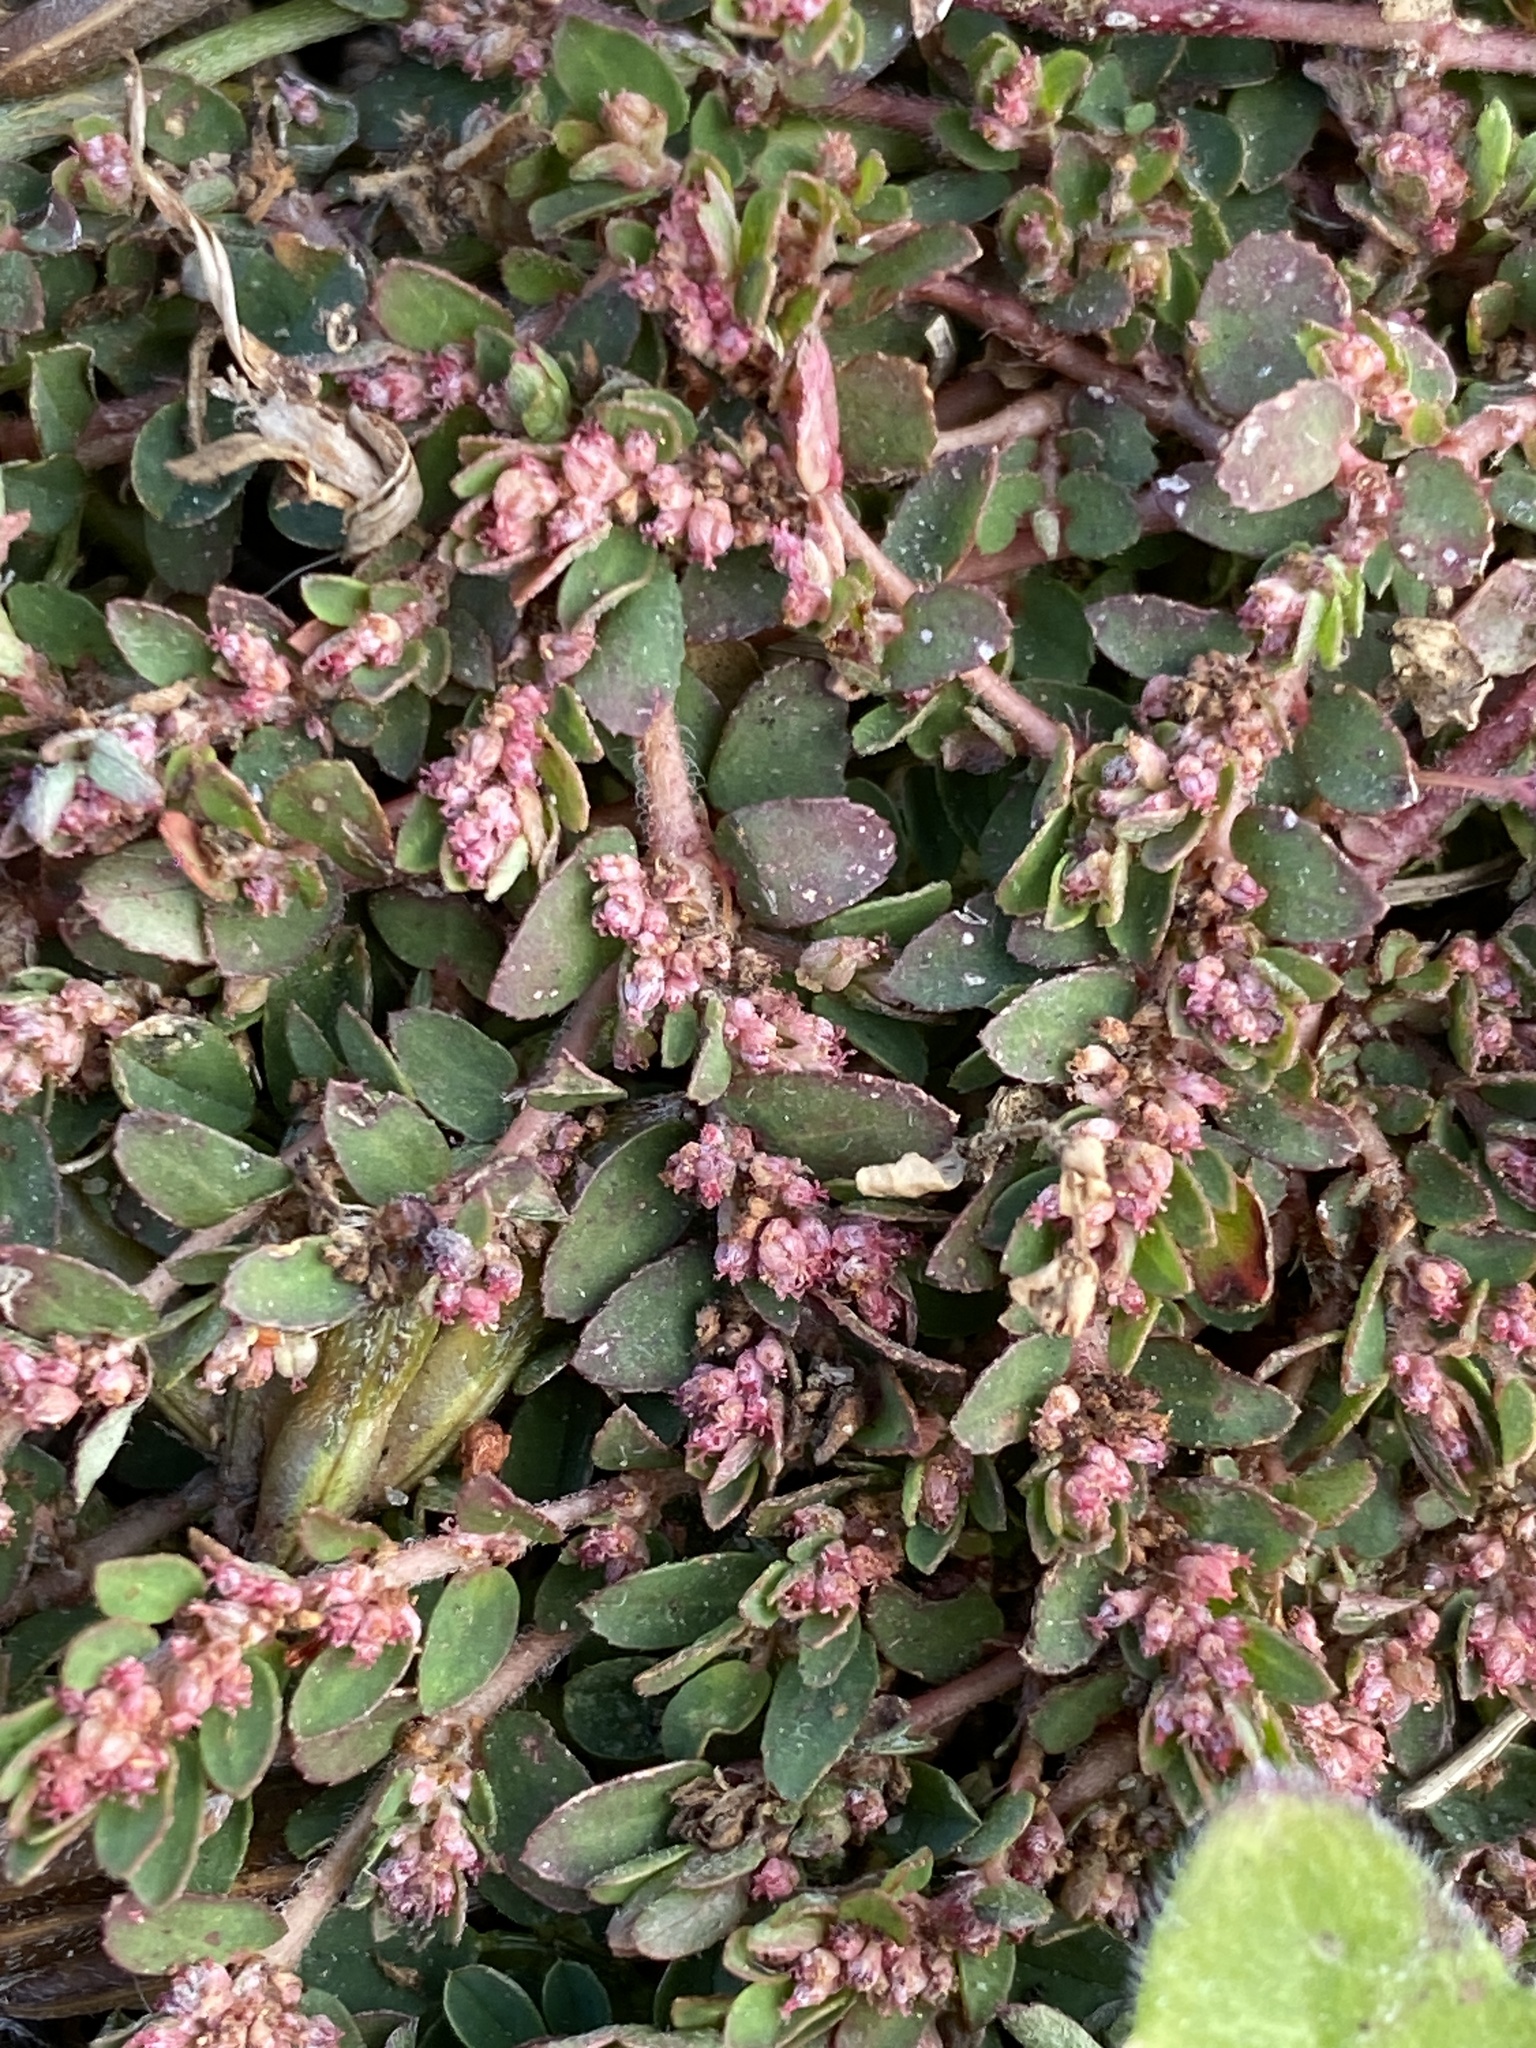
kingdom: Plantae
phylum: Tracheophyta
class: Magnoliopsida
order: Malpighiales
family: Euphorbiaceae
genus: Euphorbia
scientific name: Euphorbia maculata
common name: Spotted spurge
